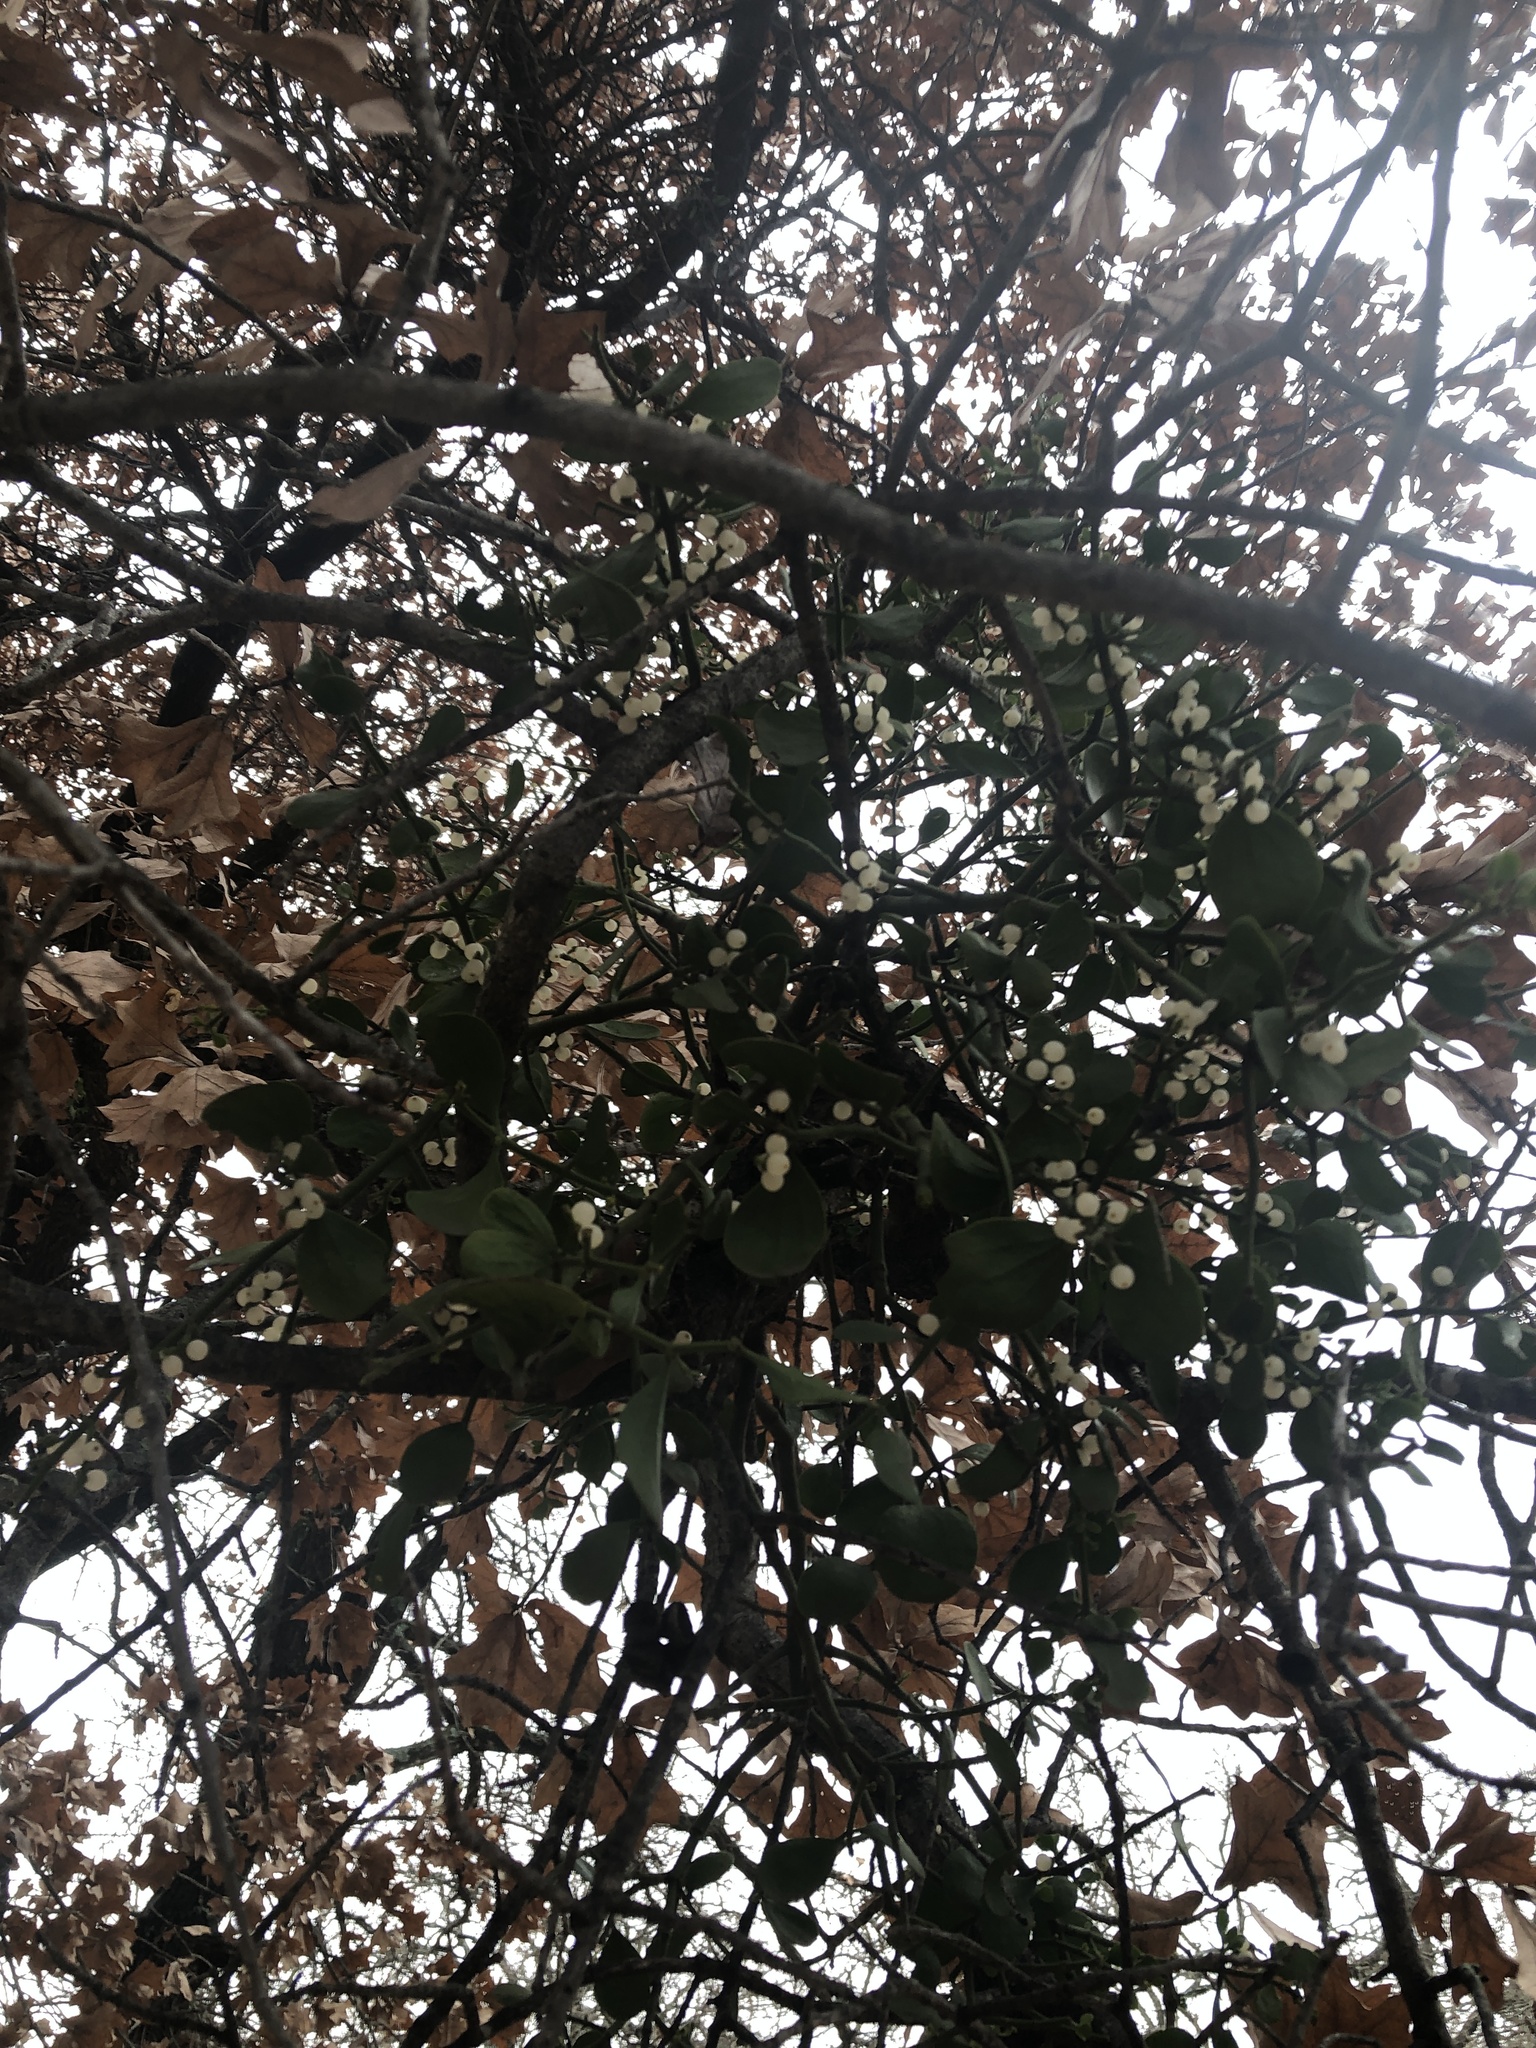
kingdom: Plantae
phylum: Tracheophyta
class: Magnoliopsida
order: Santalales
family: Viscaceae
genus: Phoradendron
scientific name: Phoradendron leucarpum
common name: Pacific mistletoe
